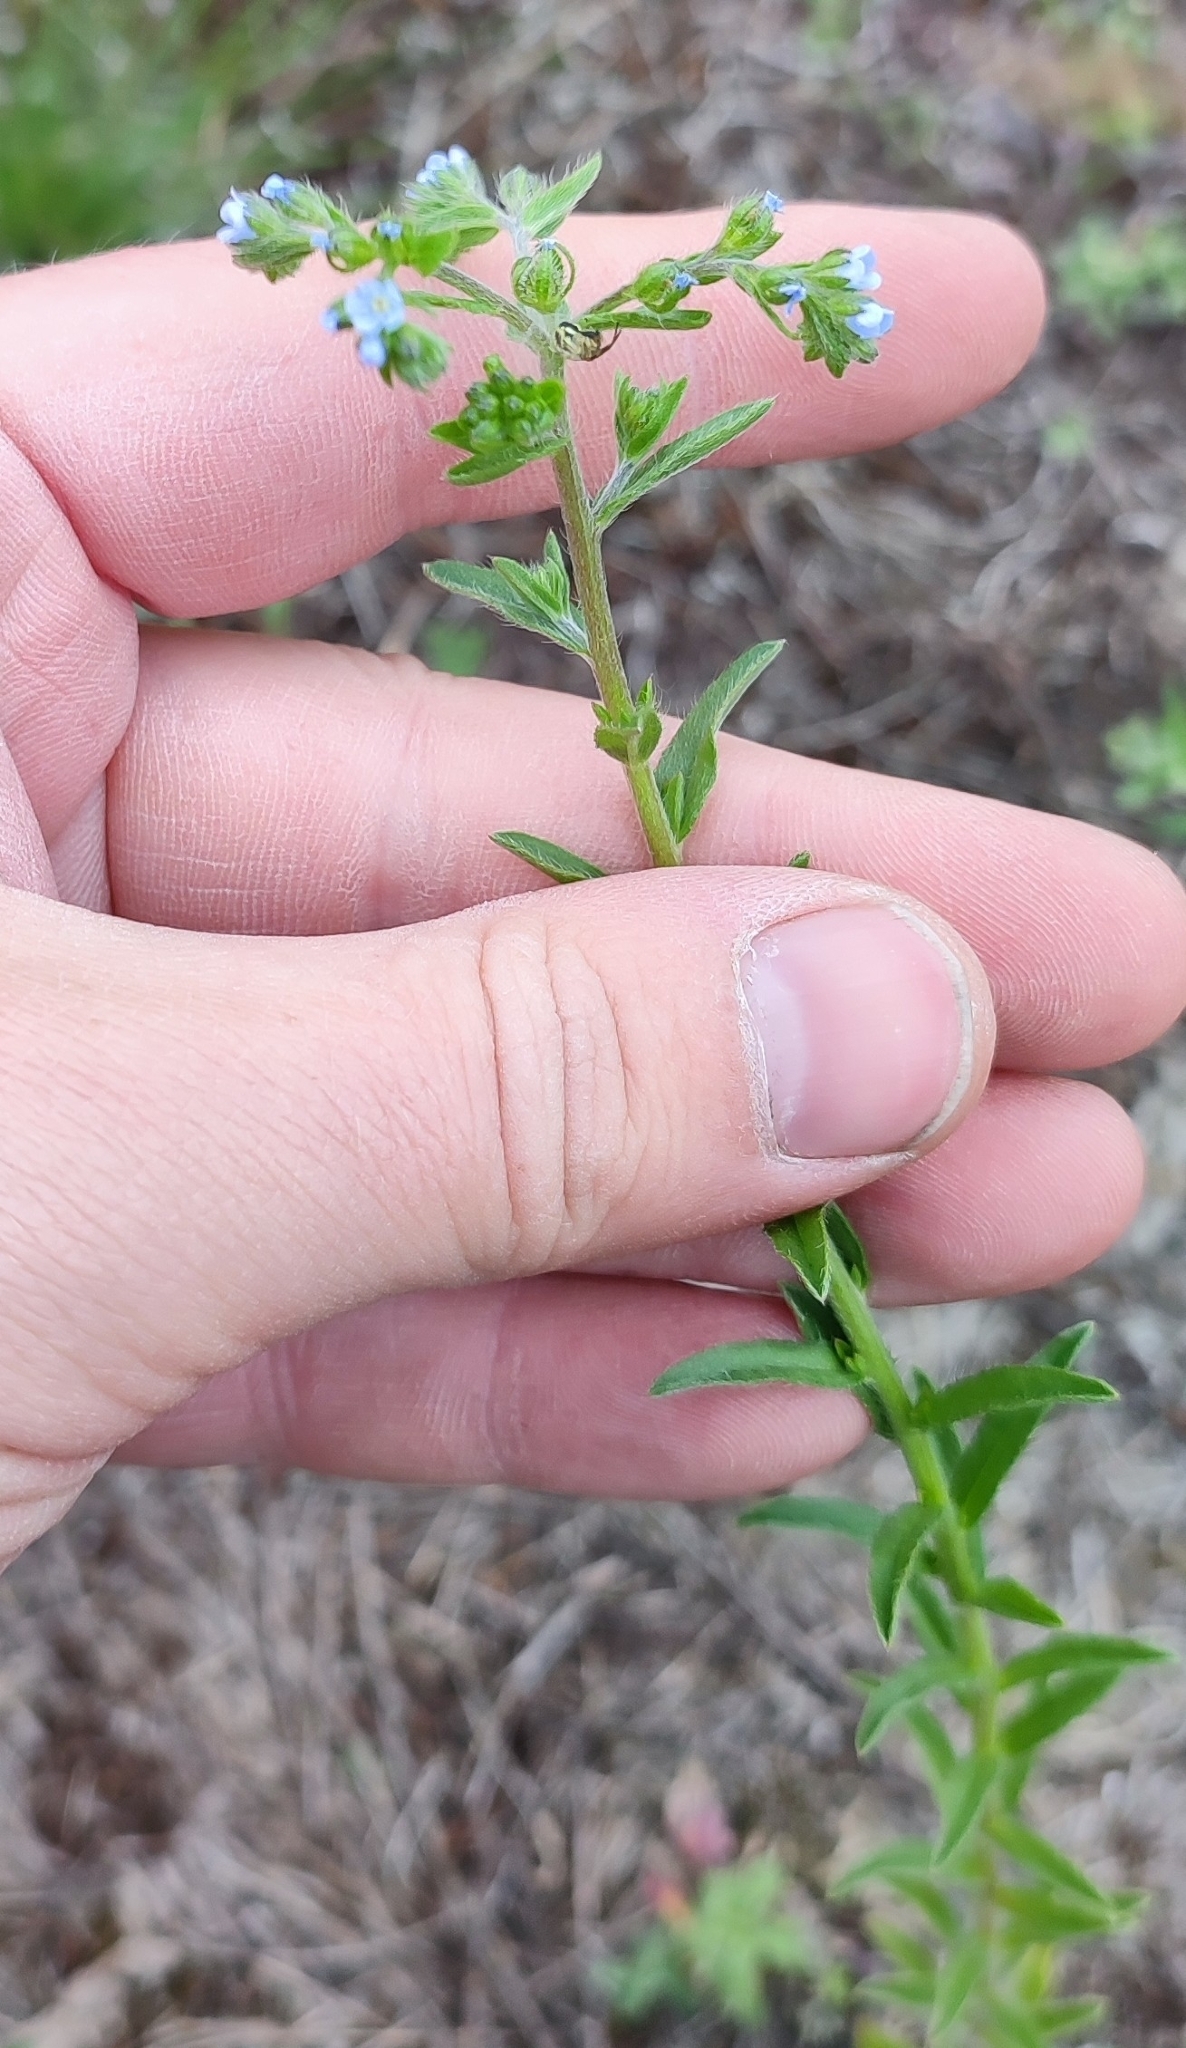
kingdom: Plantae
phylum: Tracheophyta
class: Magnoliopsida
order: Boraginales
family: Boraginaceae
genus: Lappula
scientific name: Lappula squarrosa
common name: European stickseed
